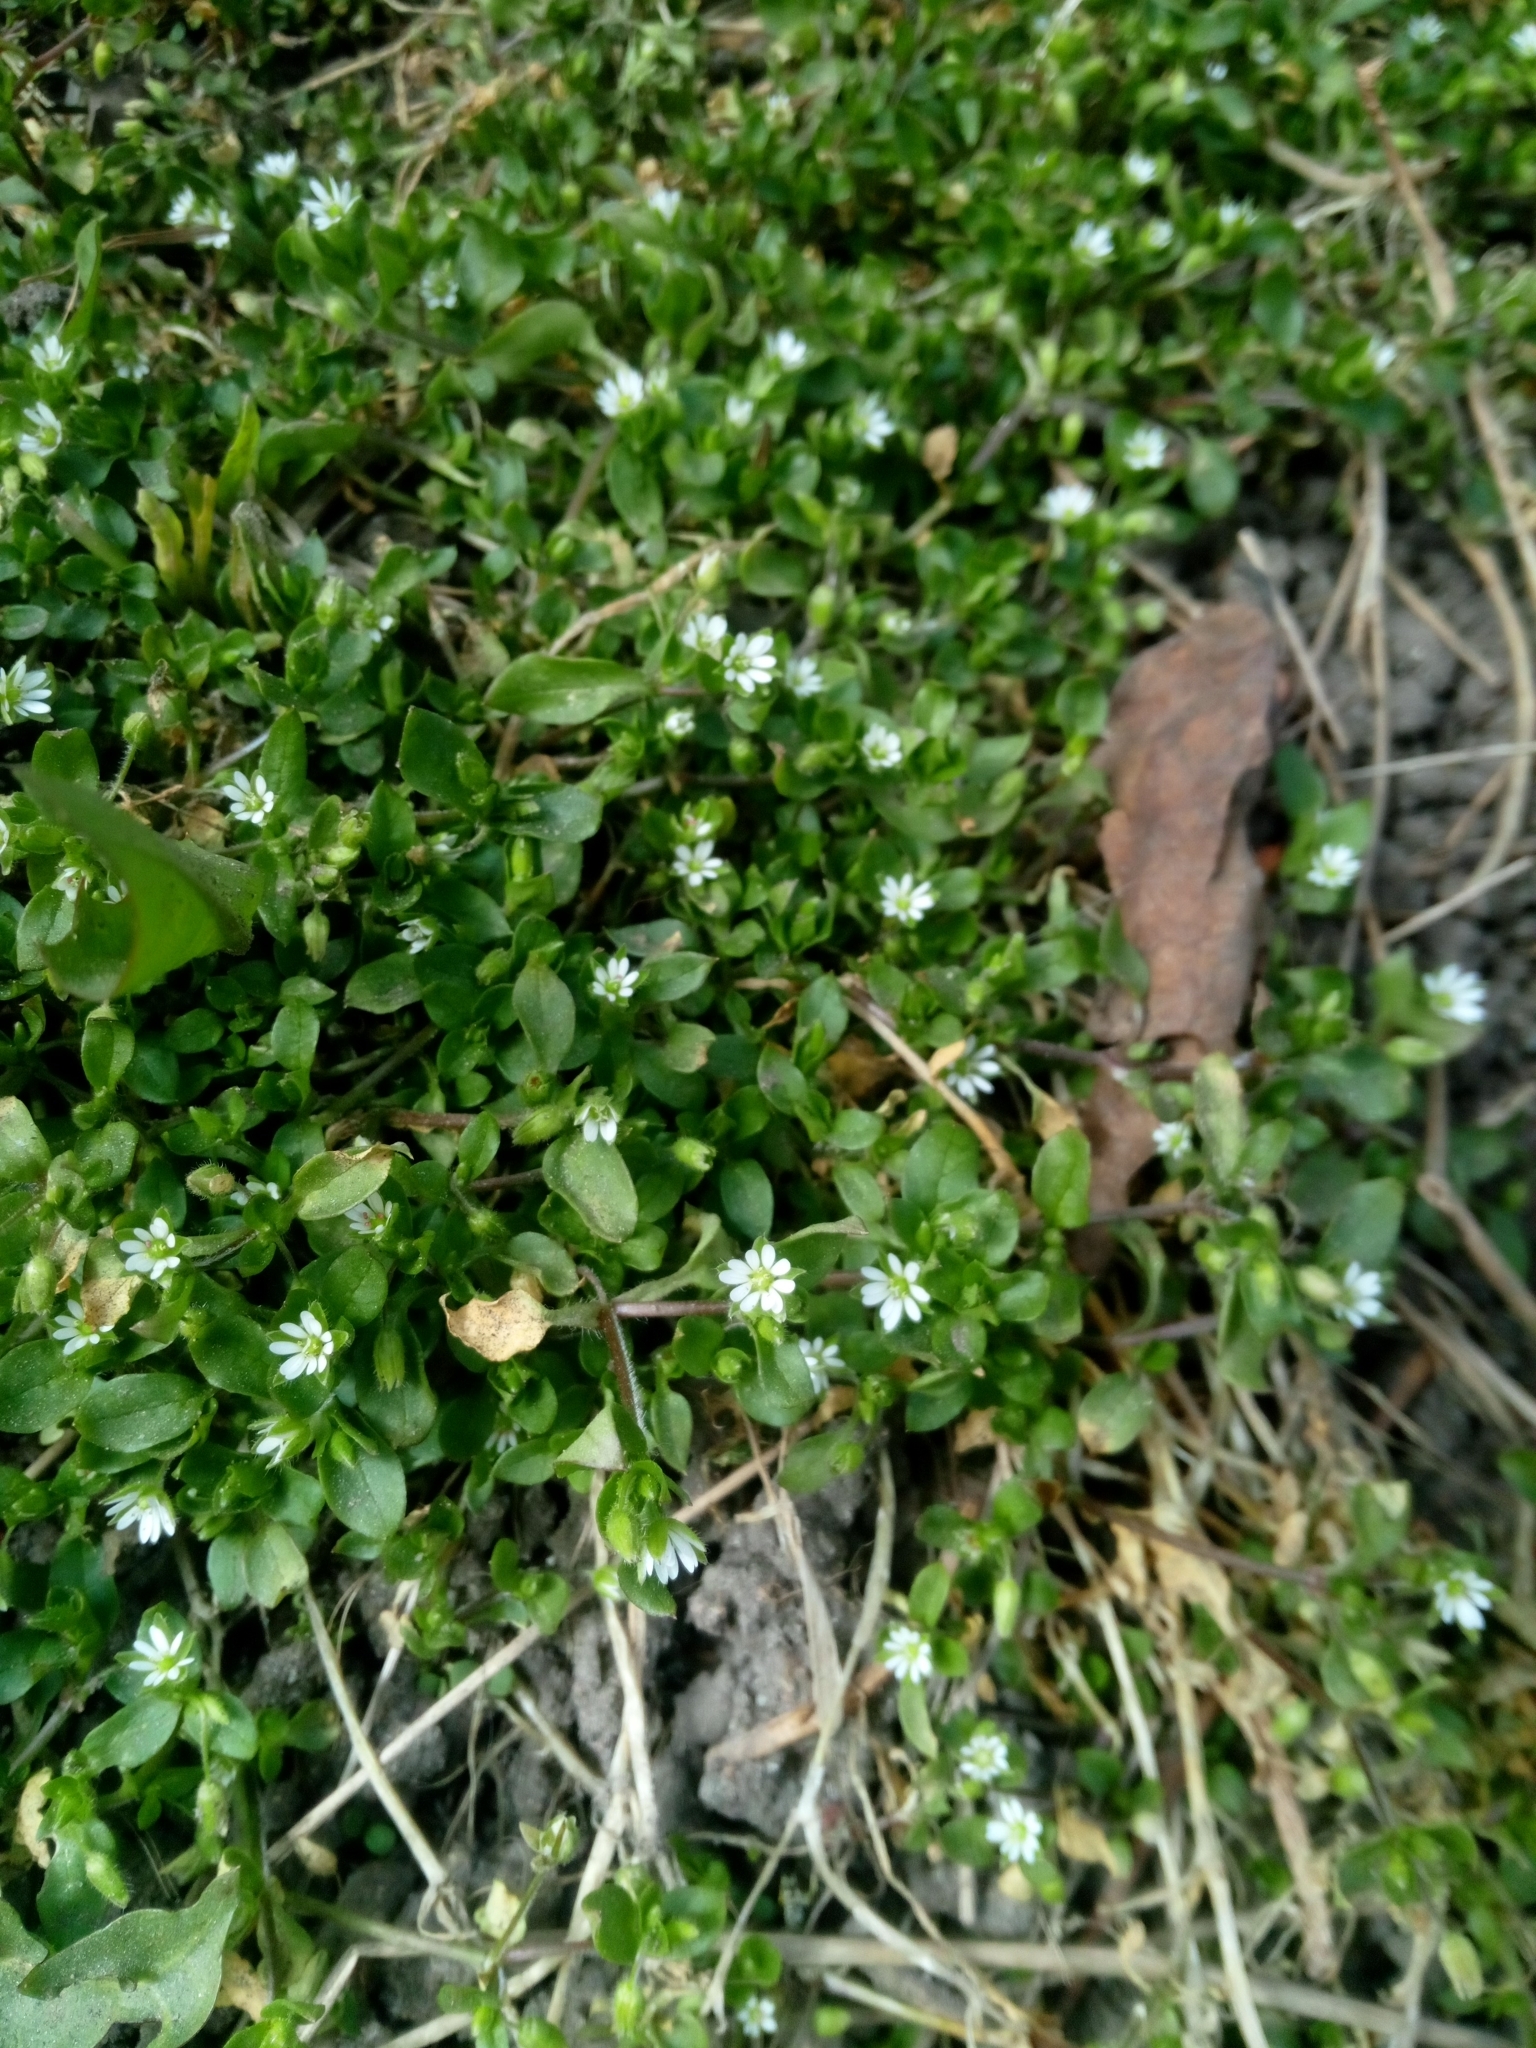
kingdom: Plantae
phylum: Tracheophyta
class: Magnoliopsida
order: Caryophyllales
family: Caryophyllaceae
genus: Stellaria
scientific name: Stellaria media
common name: Common chickweed
